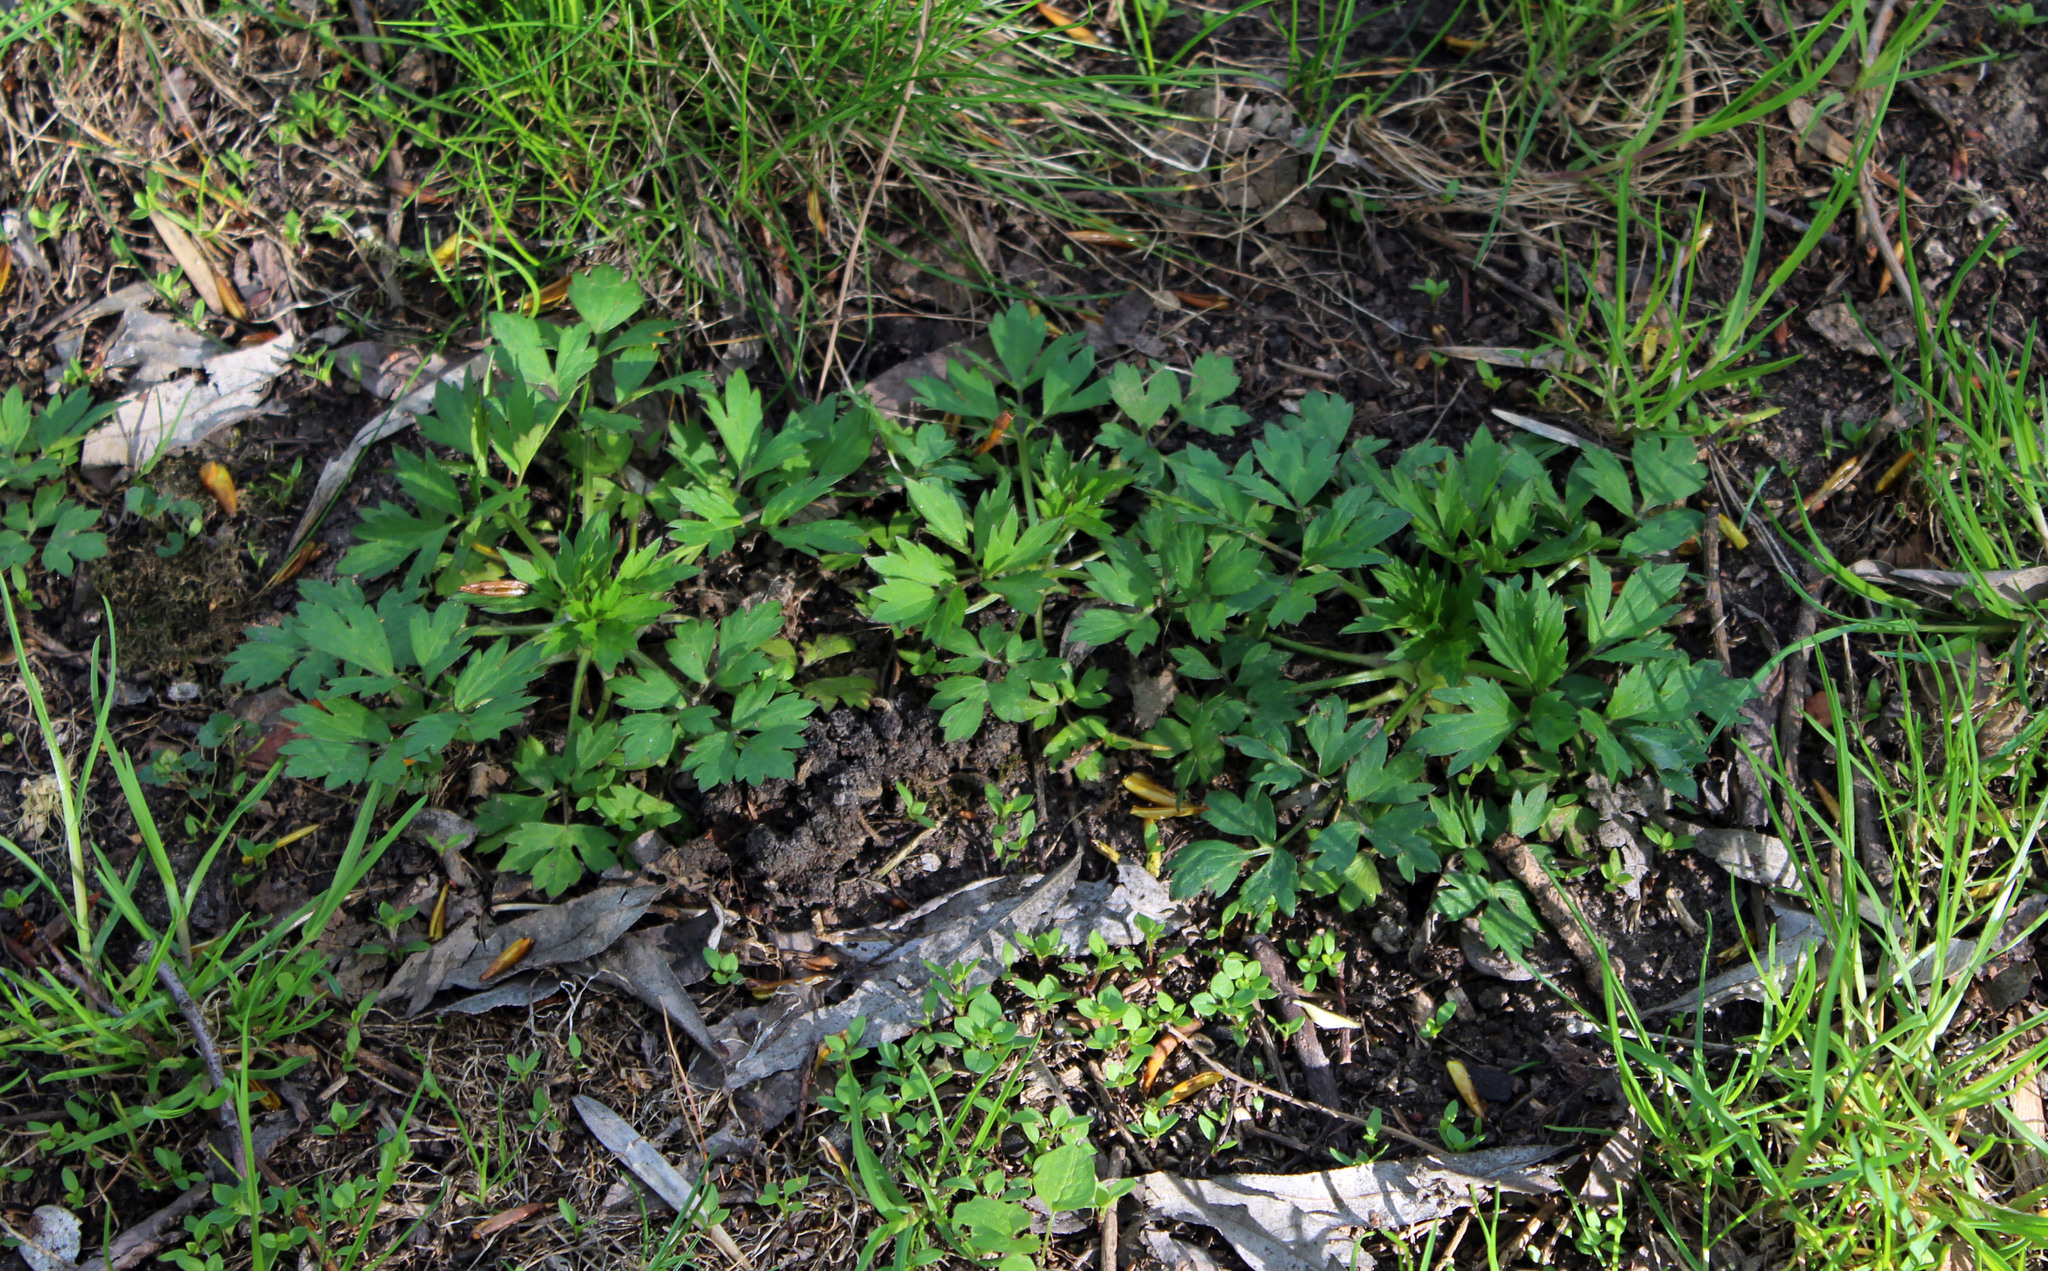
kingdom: Plantae
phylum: Tracheophyta
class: Magnoliopsida
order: Ranunculales
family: Ranunculaceae
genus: Ranunculus
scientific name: Ranunculus repens
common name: Creeping buttercup
